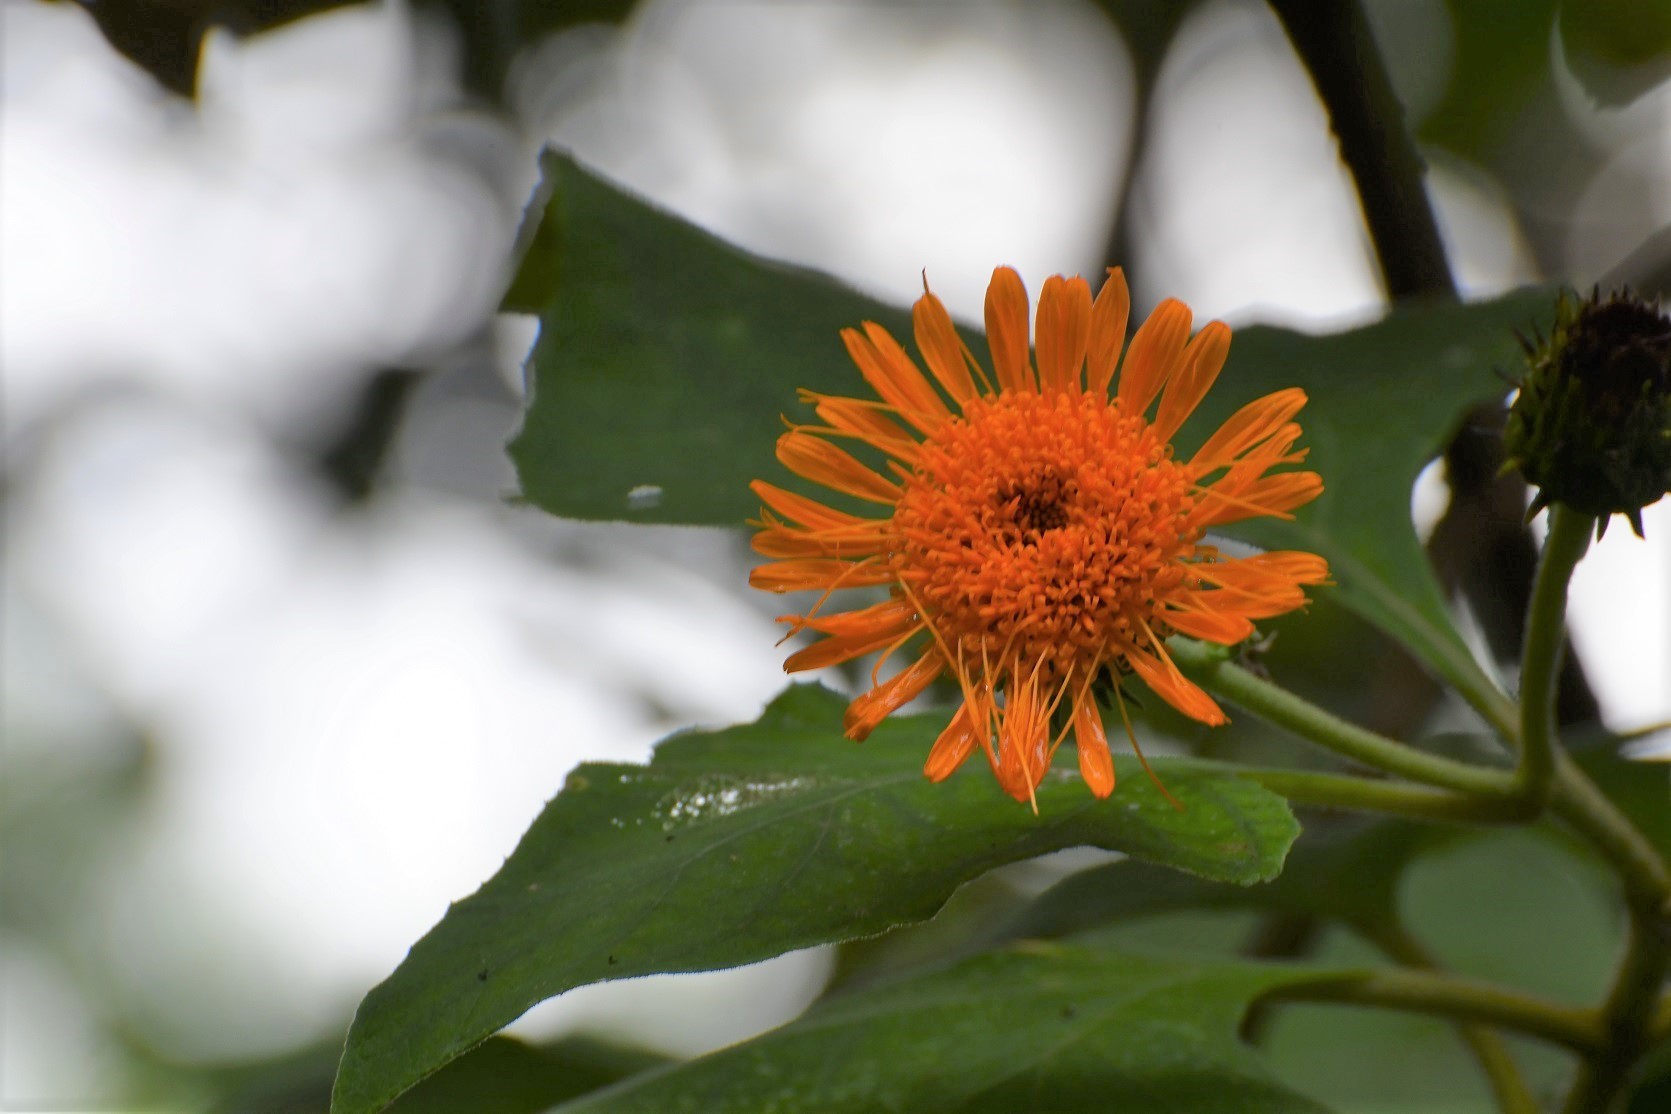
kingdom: Plantae
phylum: Tracheophyta
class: Magnoliopsida
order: Asterales
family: Asteraceae
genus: Sinclairia
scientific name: Sinclairia andrieuxii
